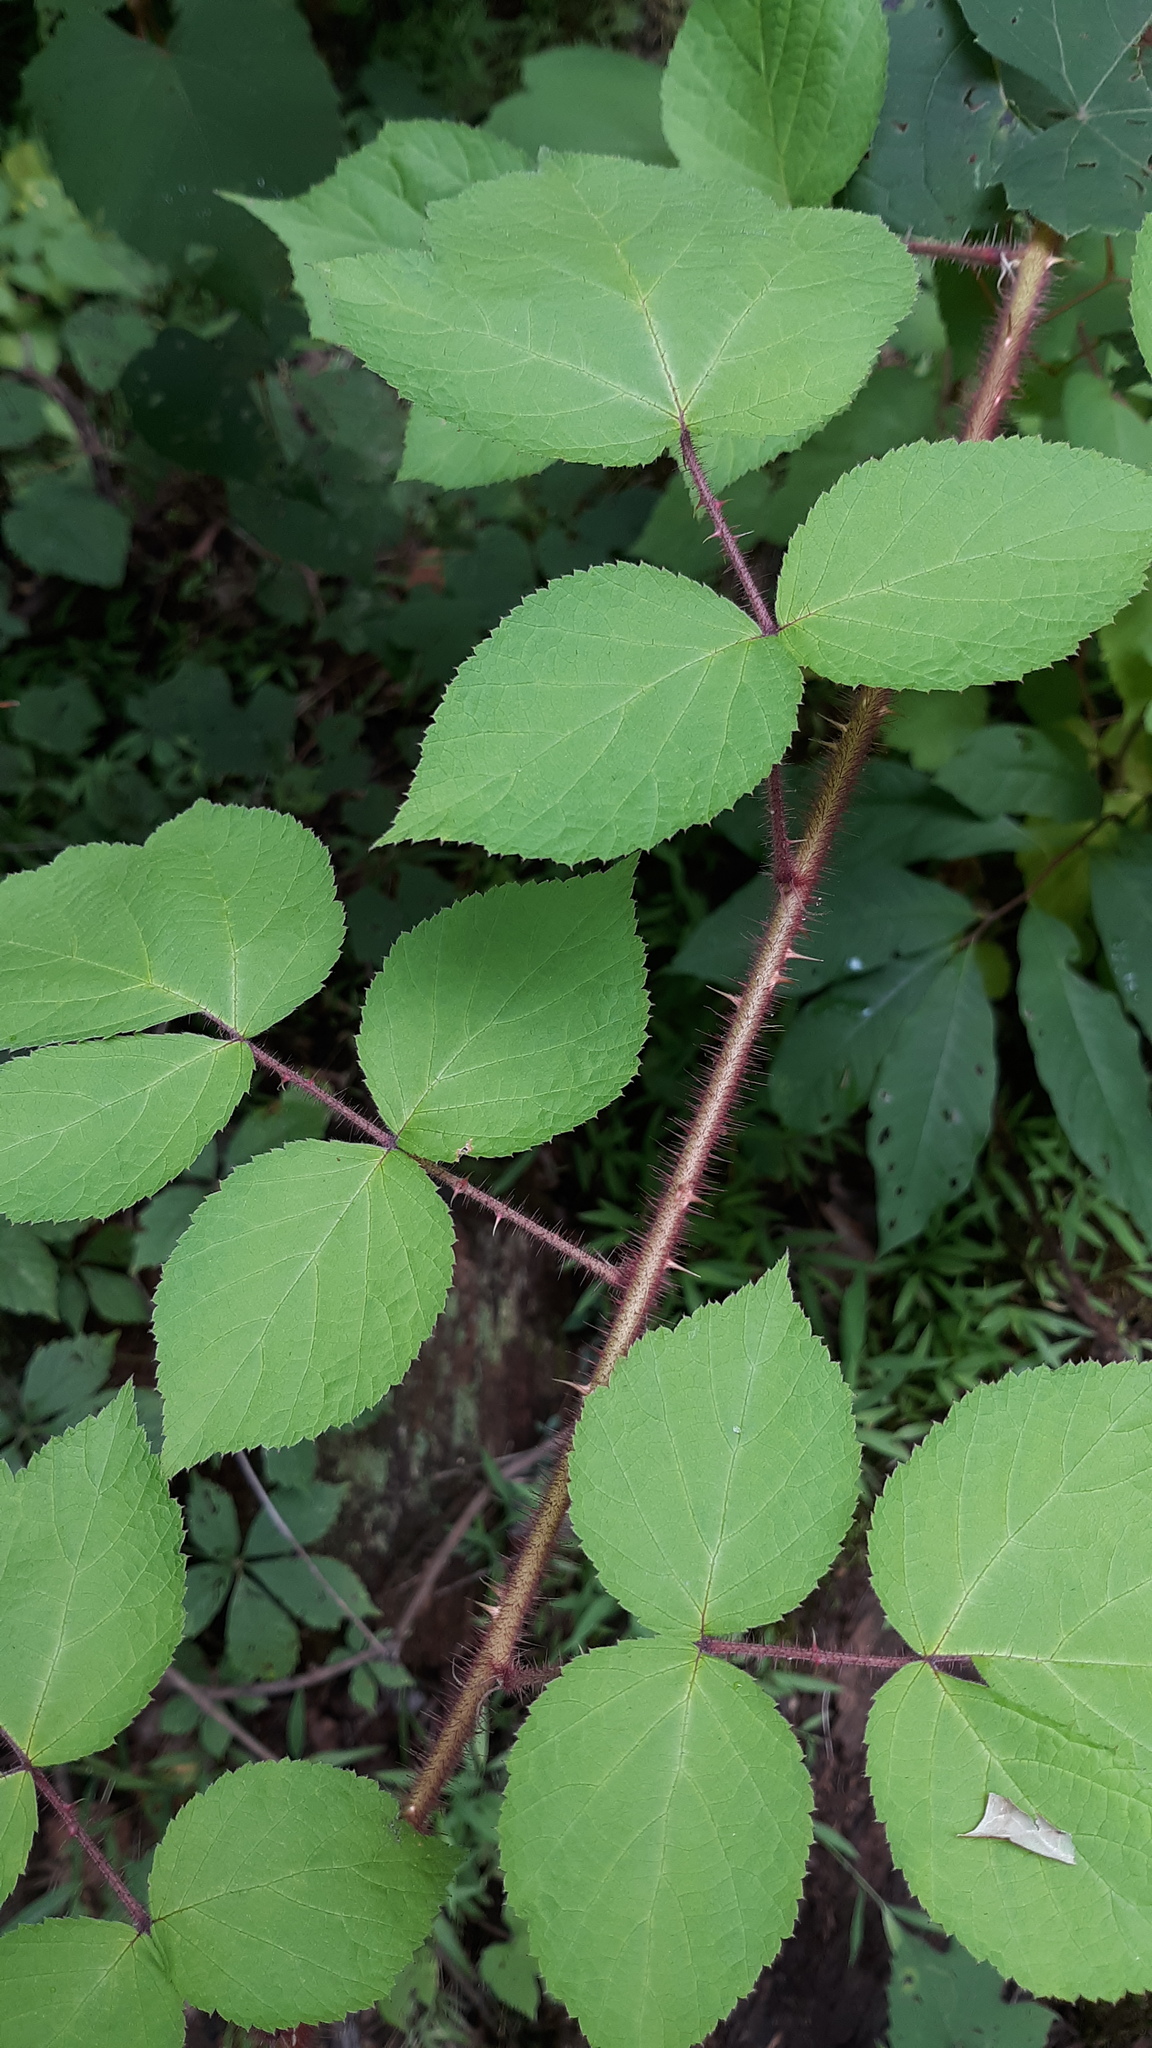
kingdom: Plantae
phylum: Tracheophyta
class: Magnoliopsida
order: Rosales
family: Rosaceae
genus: Rubus
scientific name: Rubus phoenicolasius
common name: Japanese wineberry
